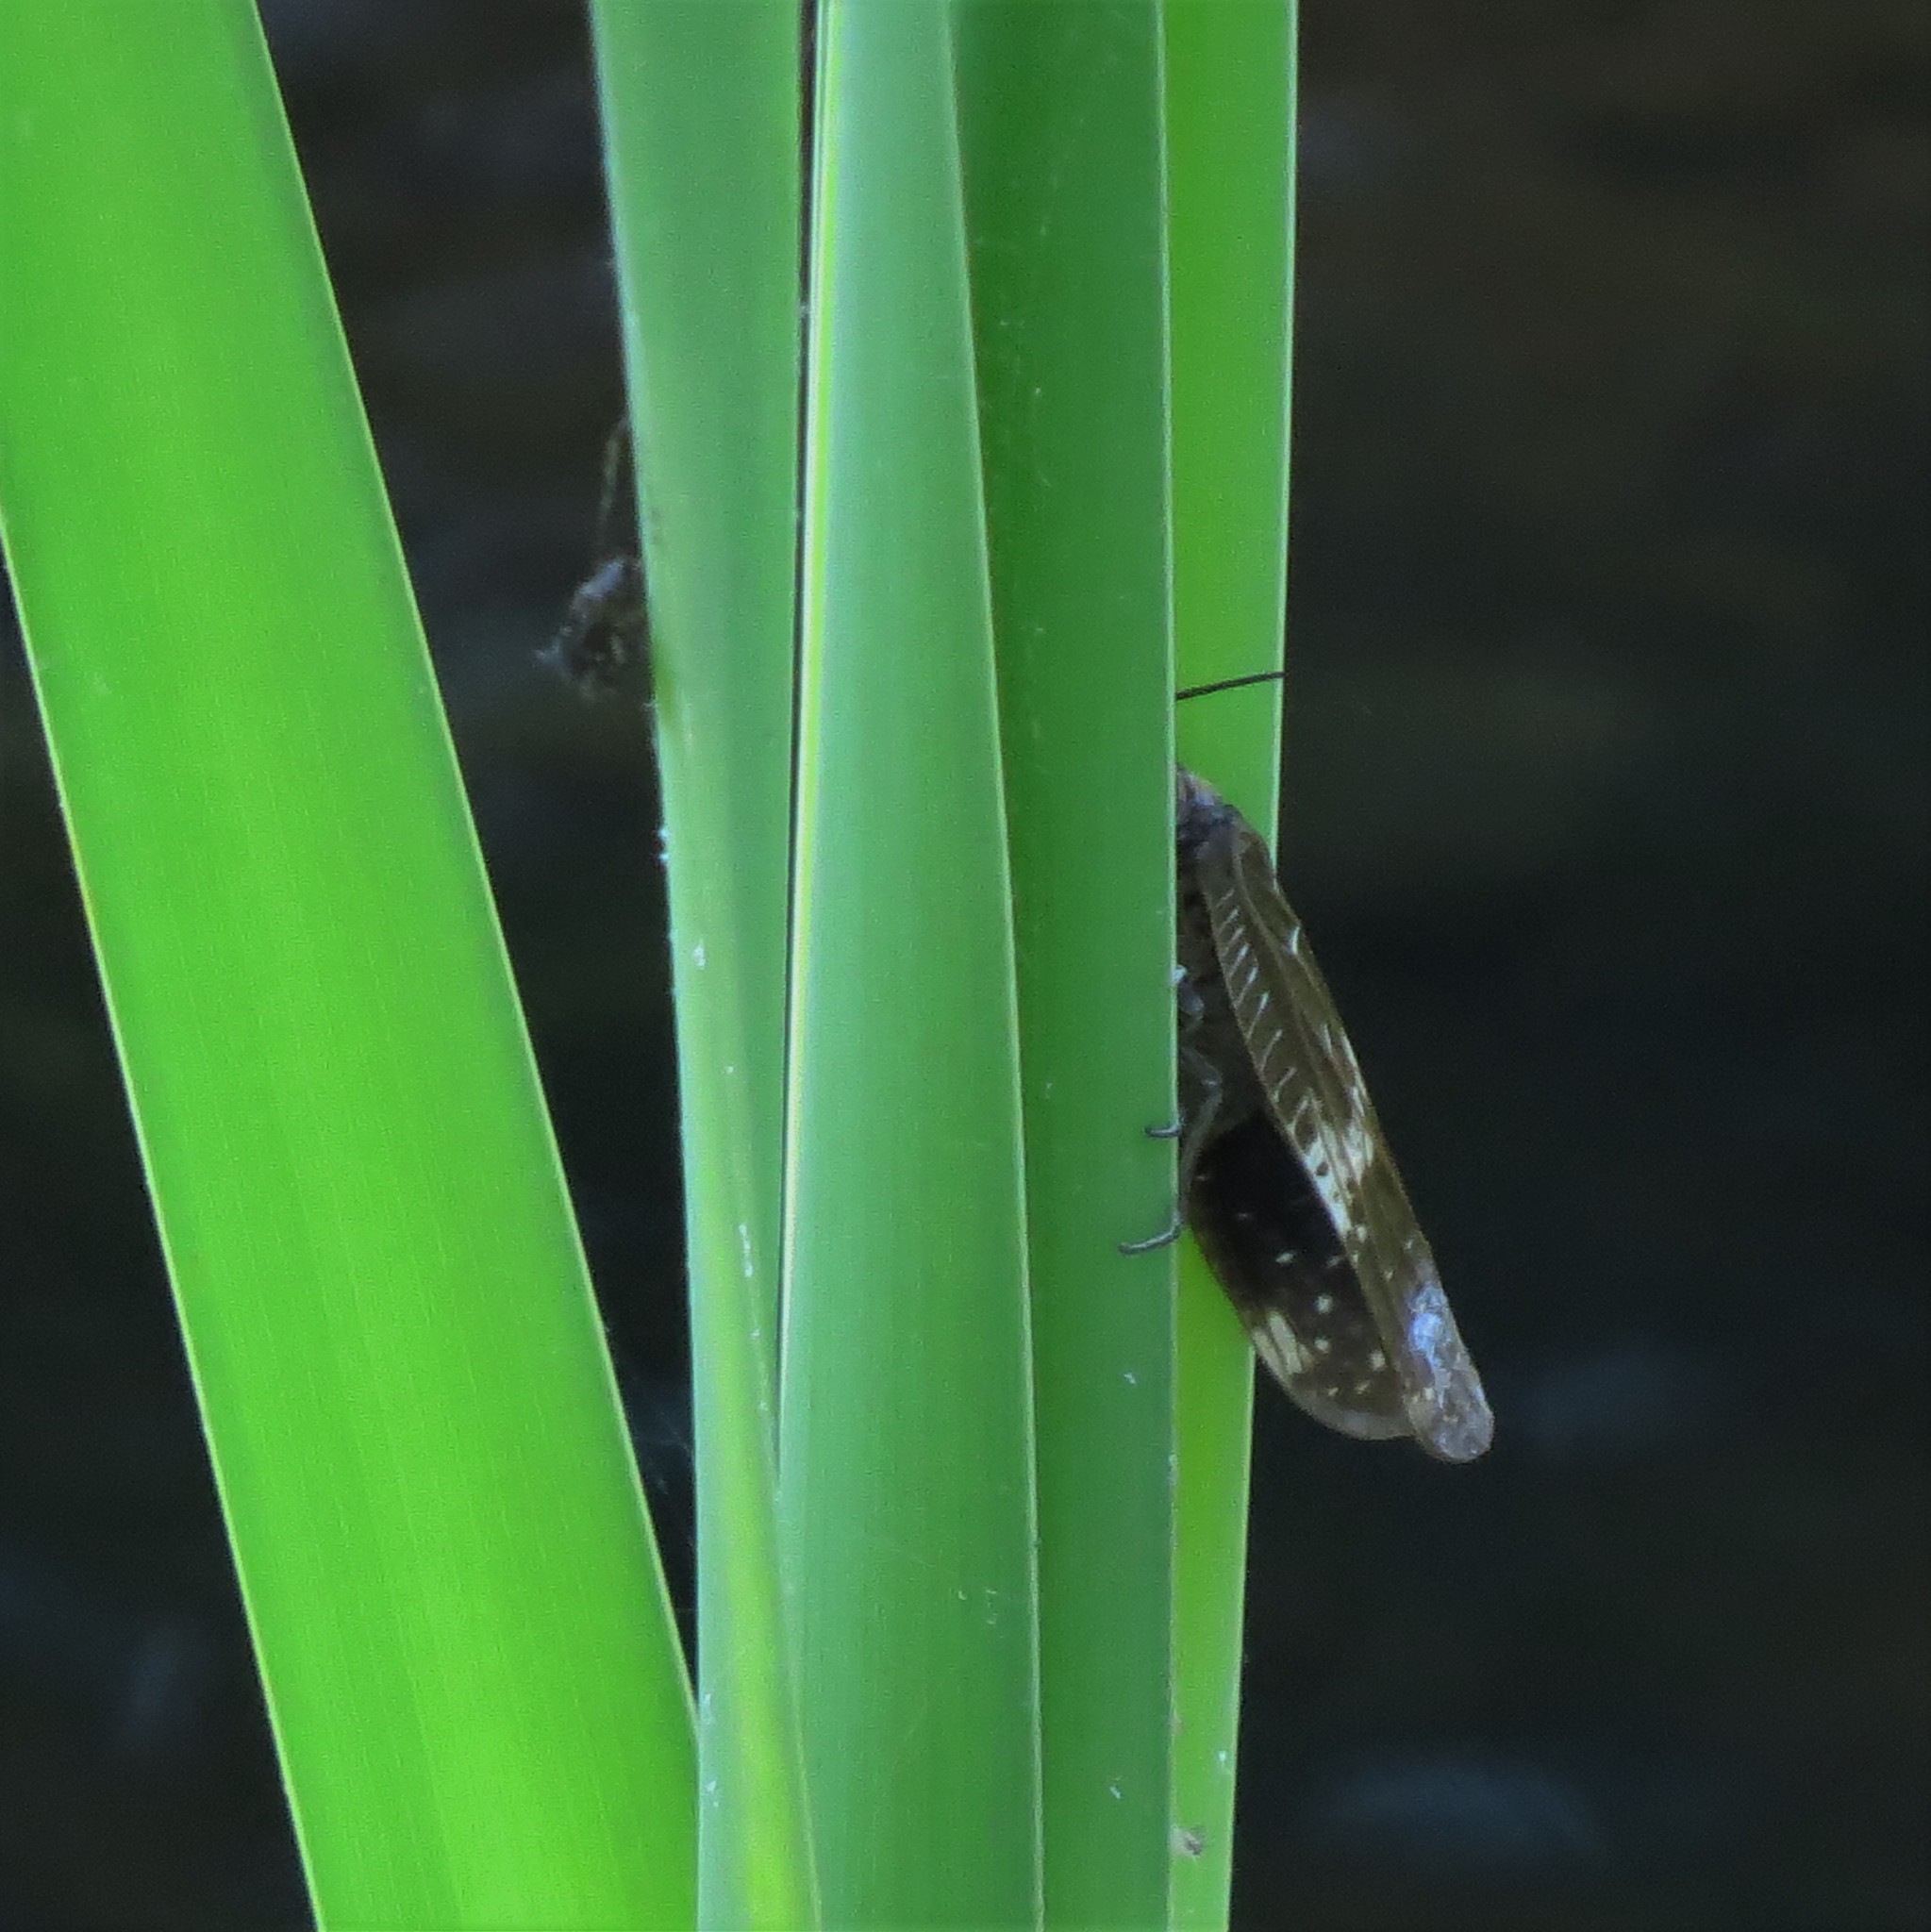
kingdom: Animalia
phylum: Arthropoda
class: Insecta
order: Megaloptera
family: Corydalidae
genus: Nigronia
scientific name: Nigronia serricornis
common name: Serrate dark fishfly
